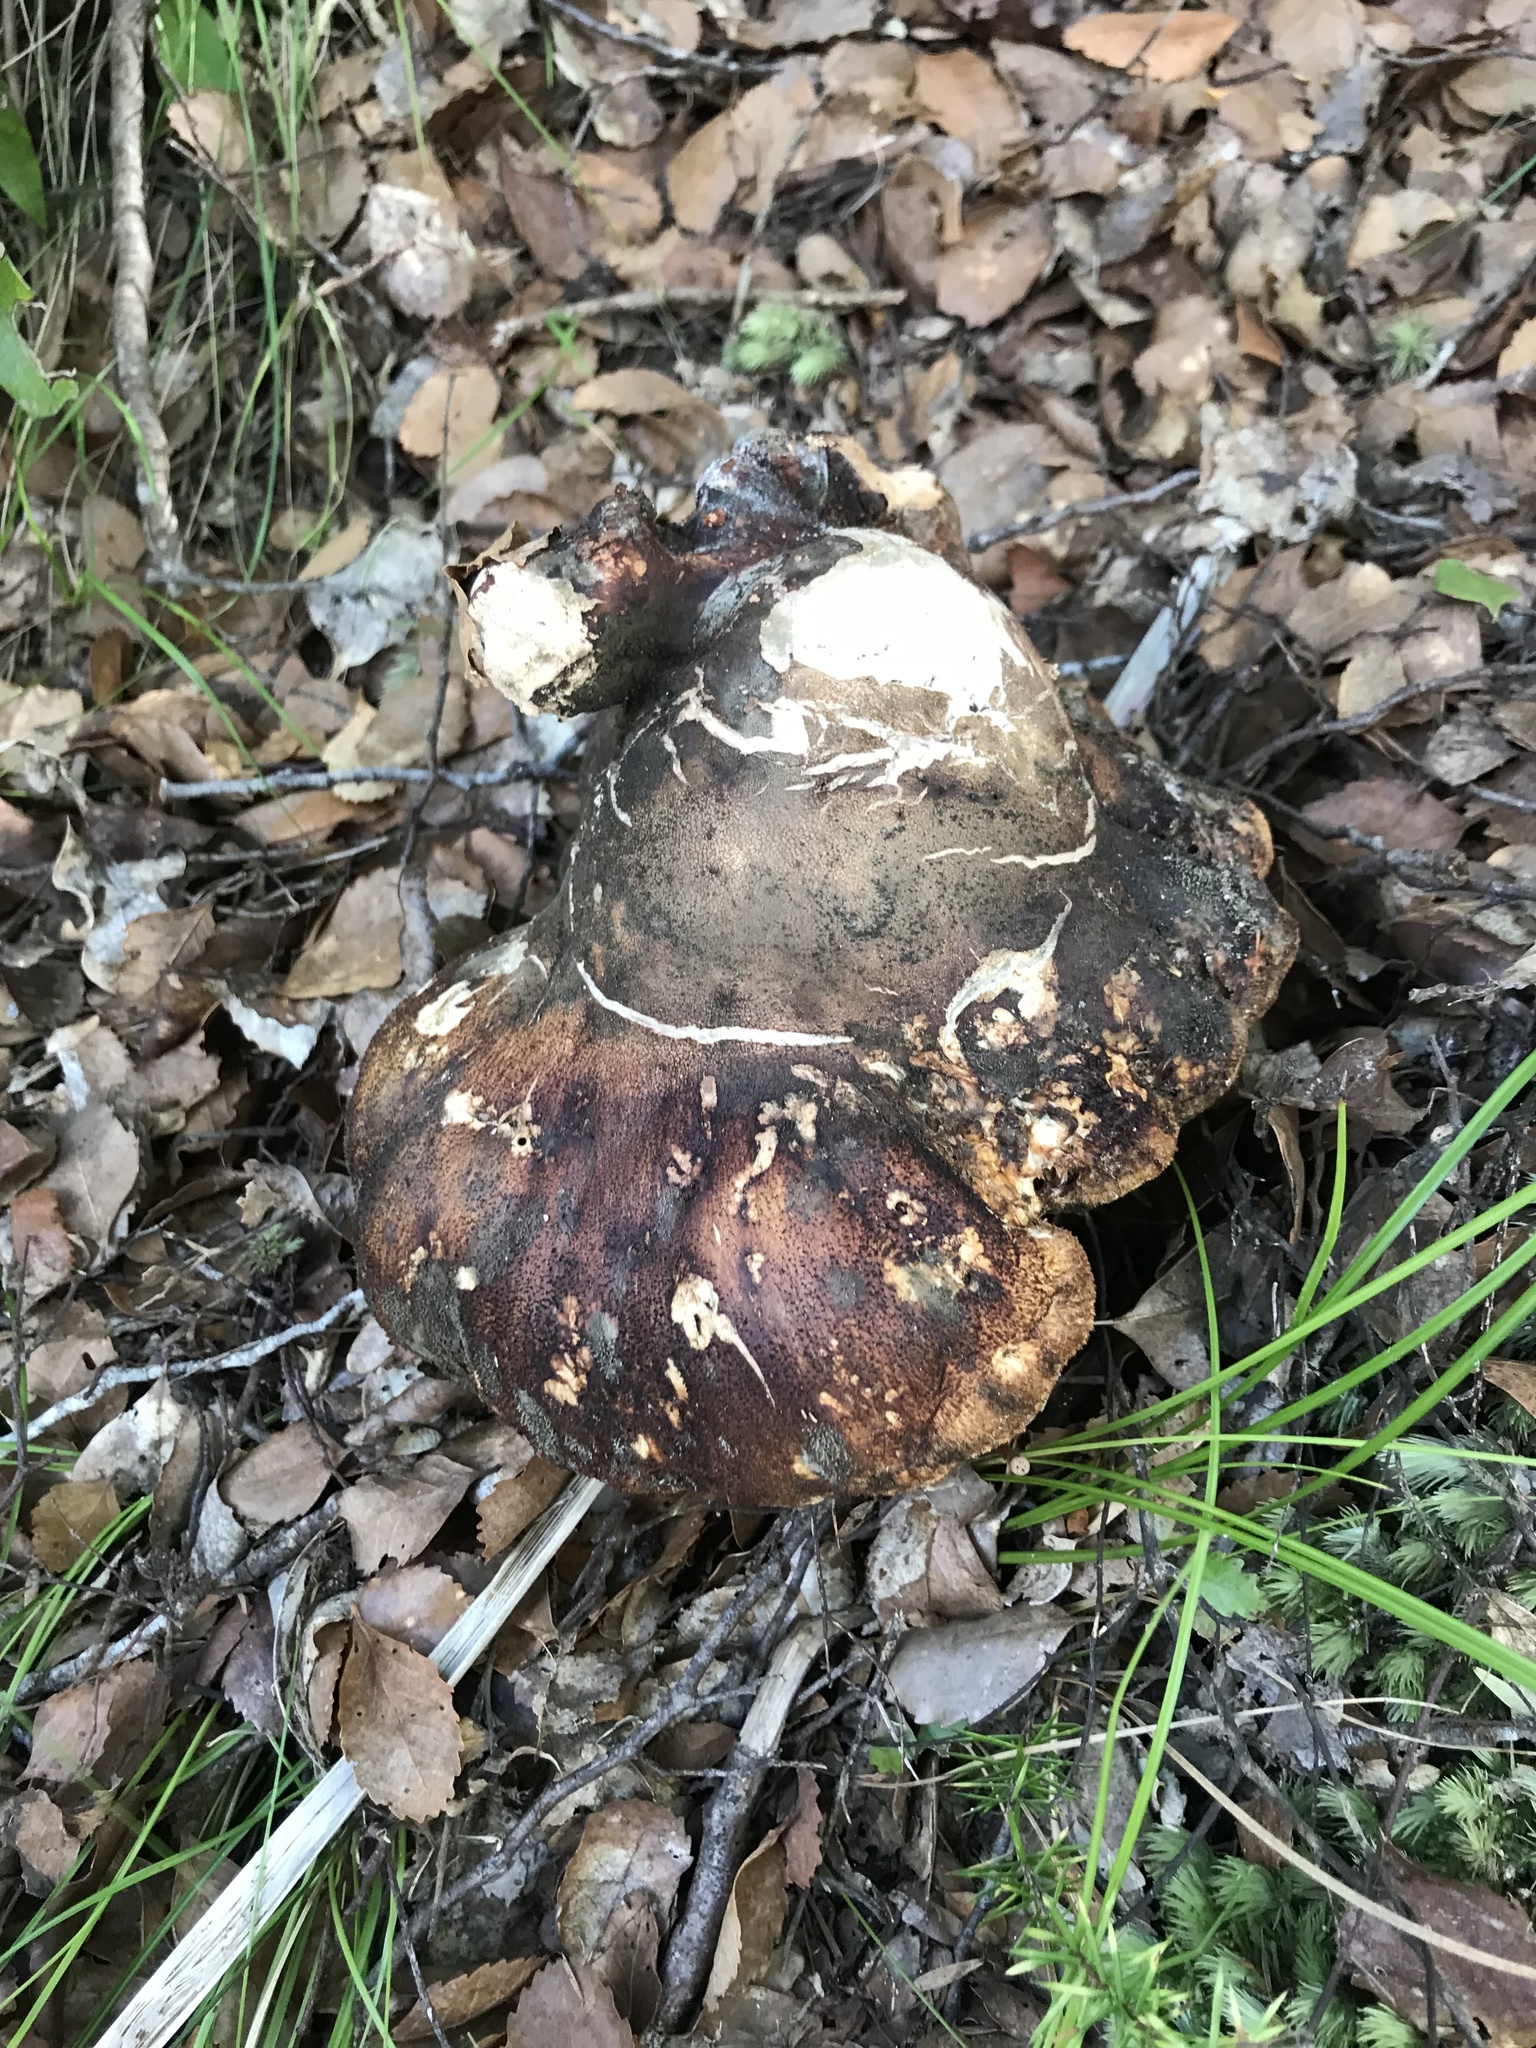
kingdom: Fungi
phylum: Basidiomycota
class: Agaricomycetes
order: Polyporales
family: Laetiporaceae
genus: Laetiporus
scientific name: Laetiporus portentosus
